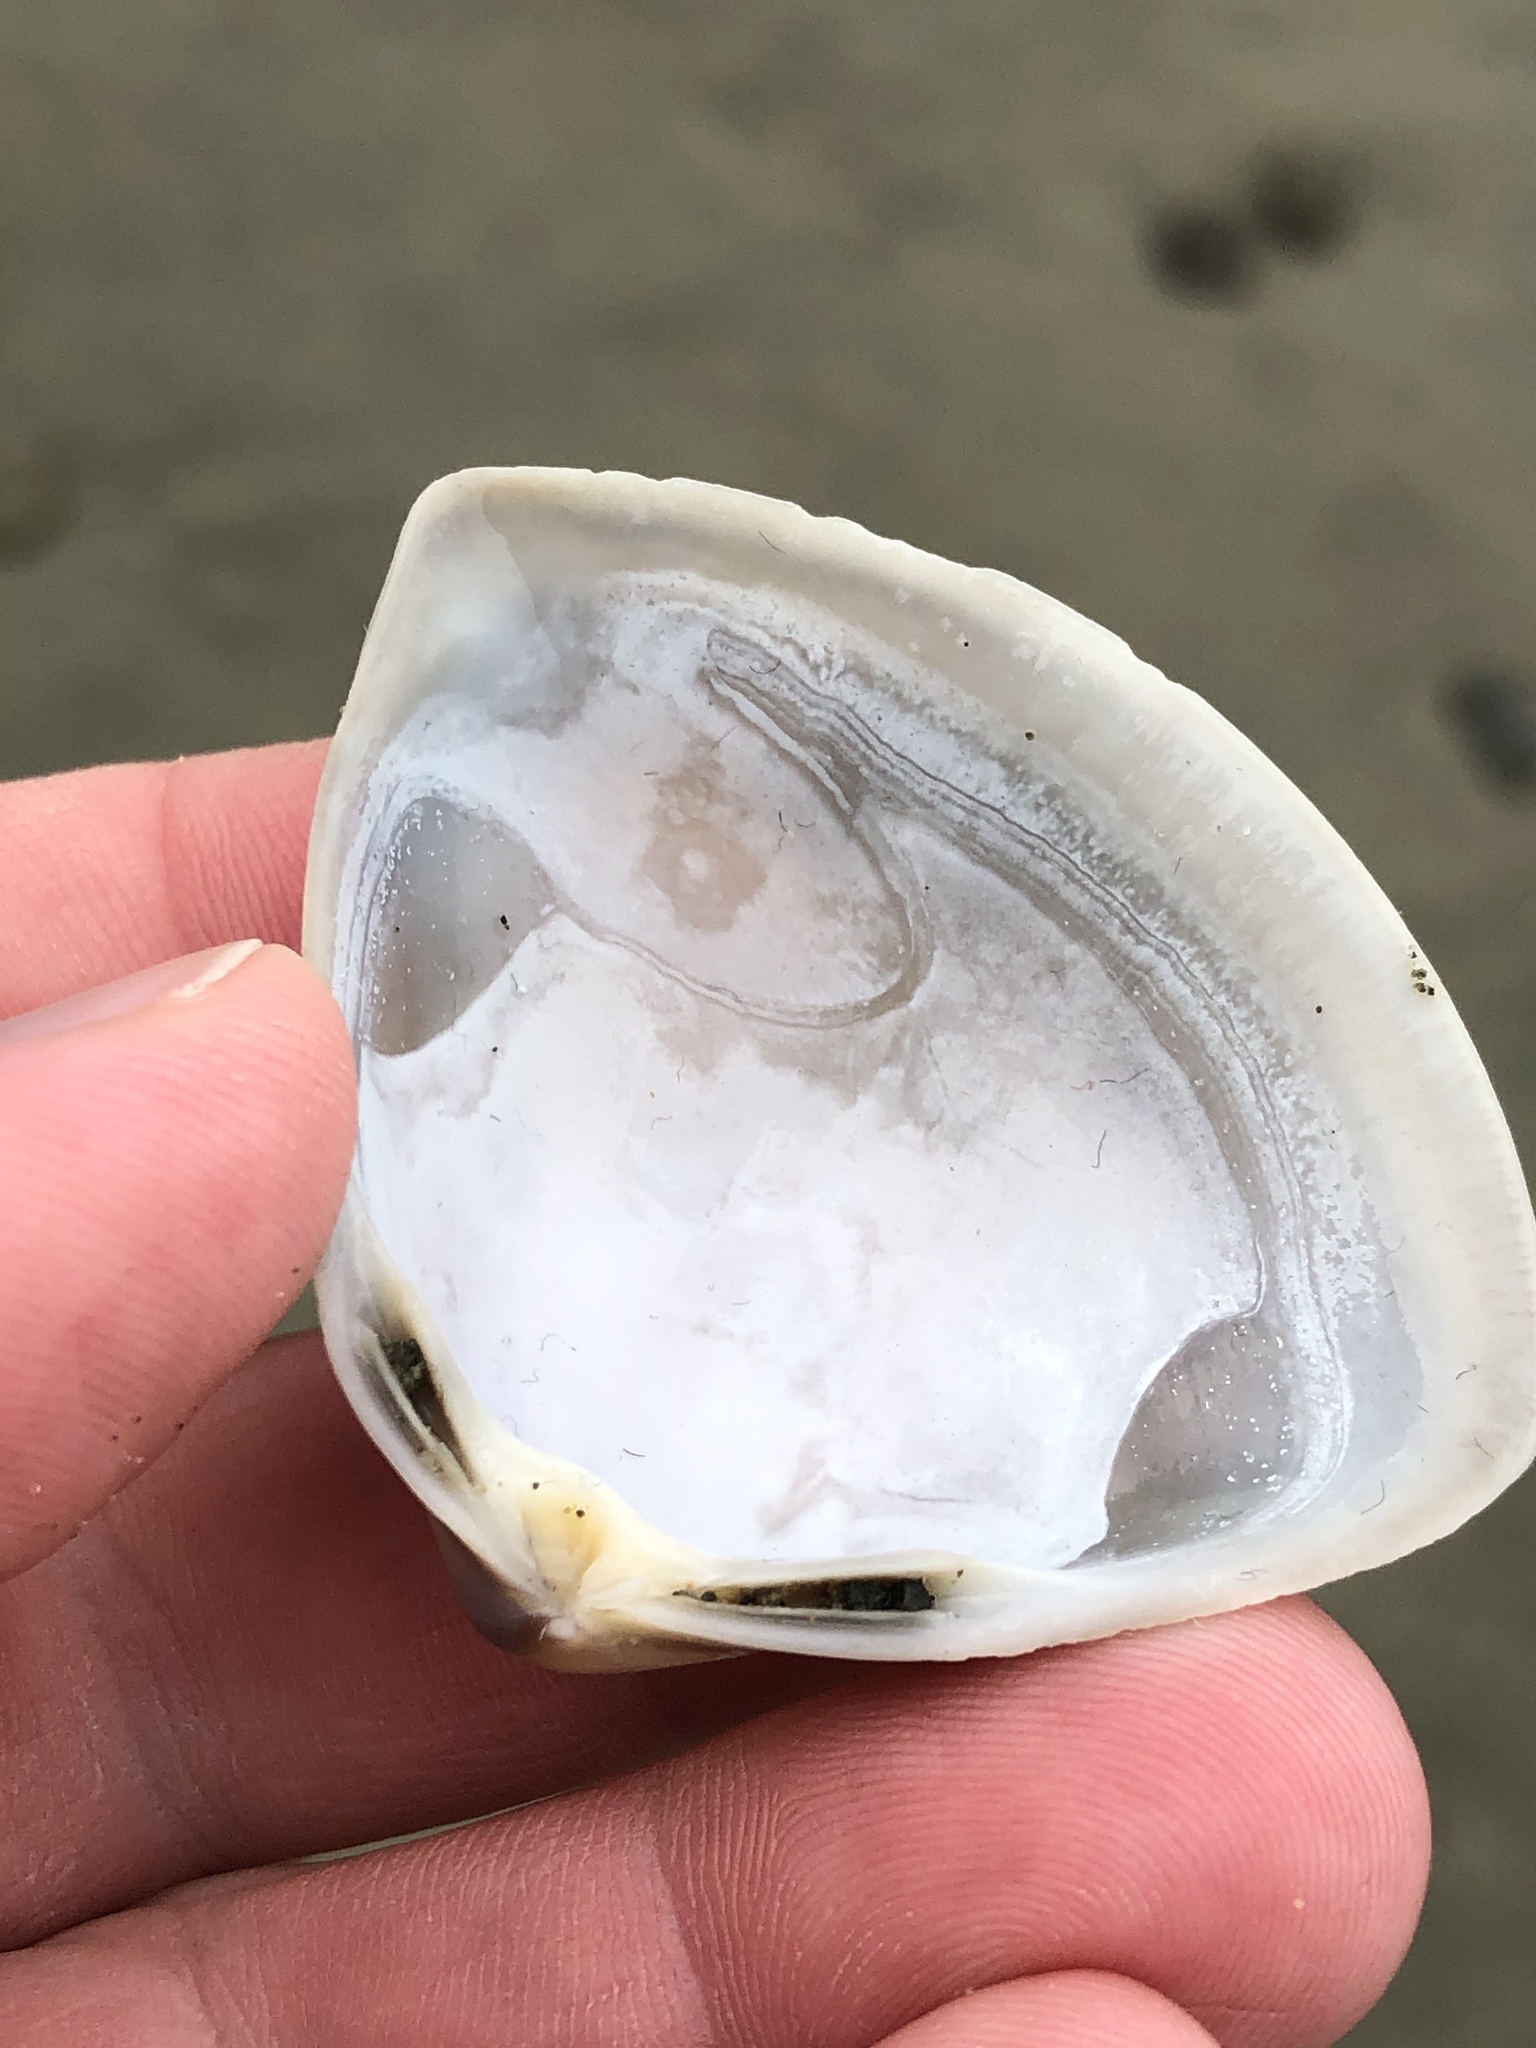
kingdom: Animalia
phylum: Mollusca
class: Bivalvia
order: Venerida
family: Mactridae
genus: Crassula
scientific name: Crassula aequilatera
